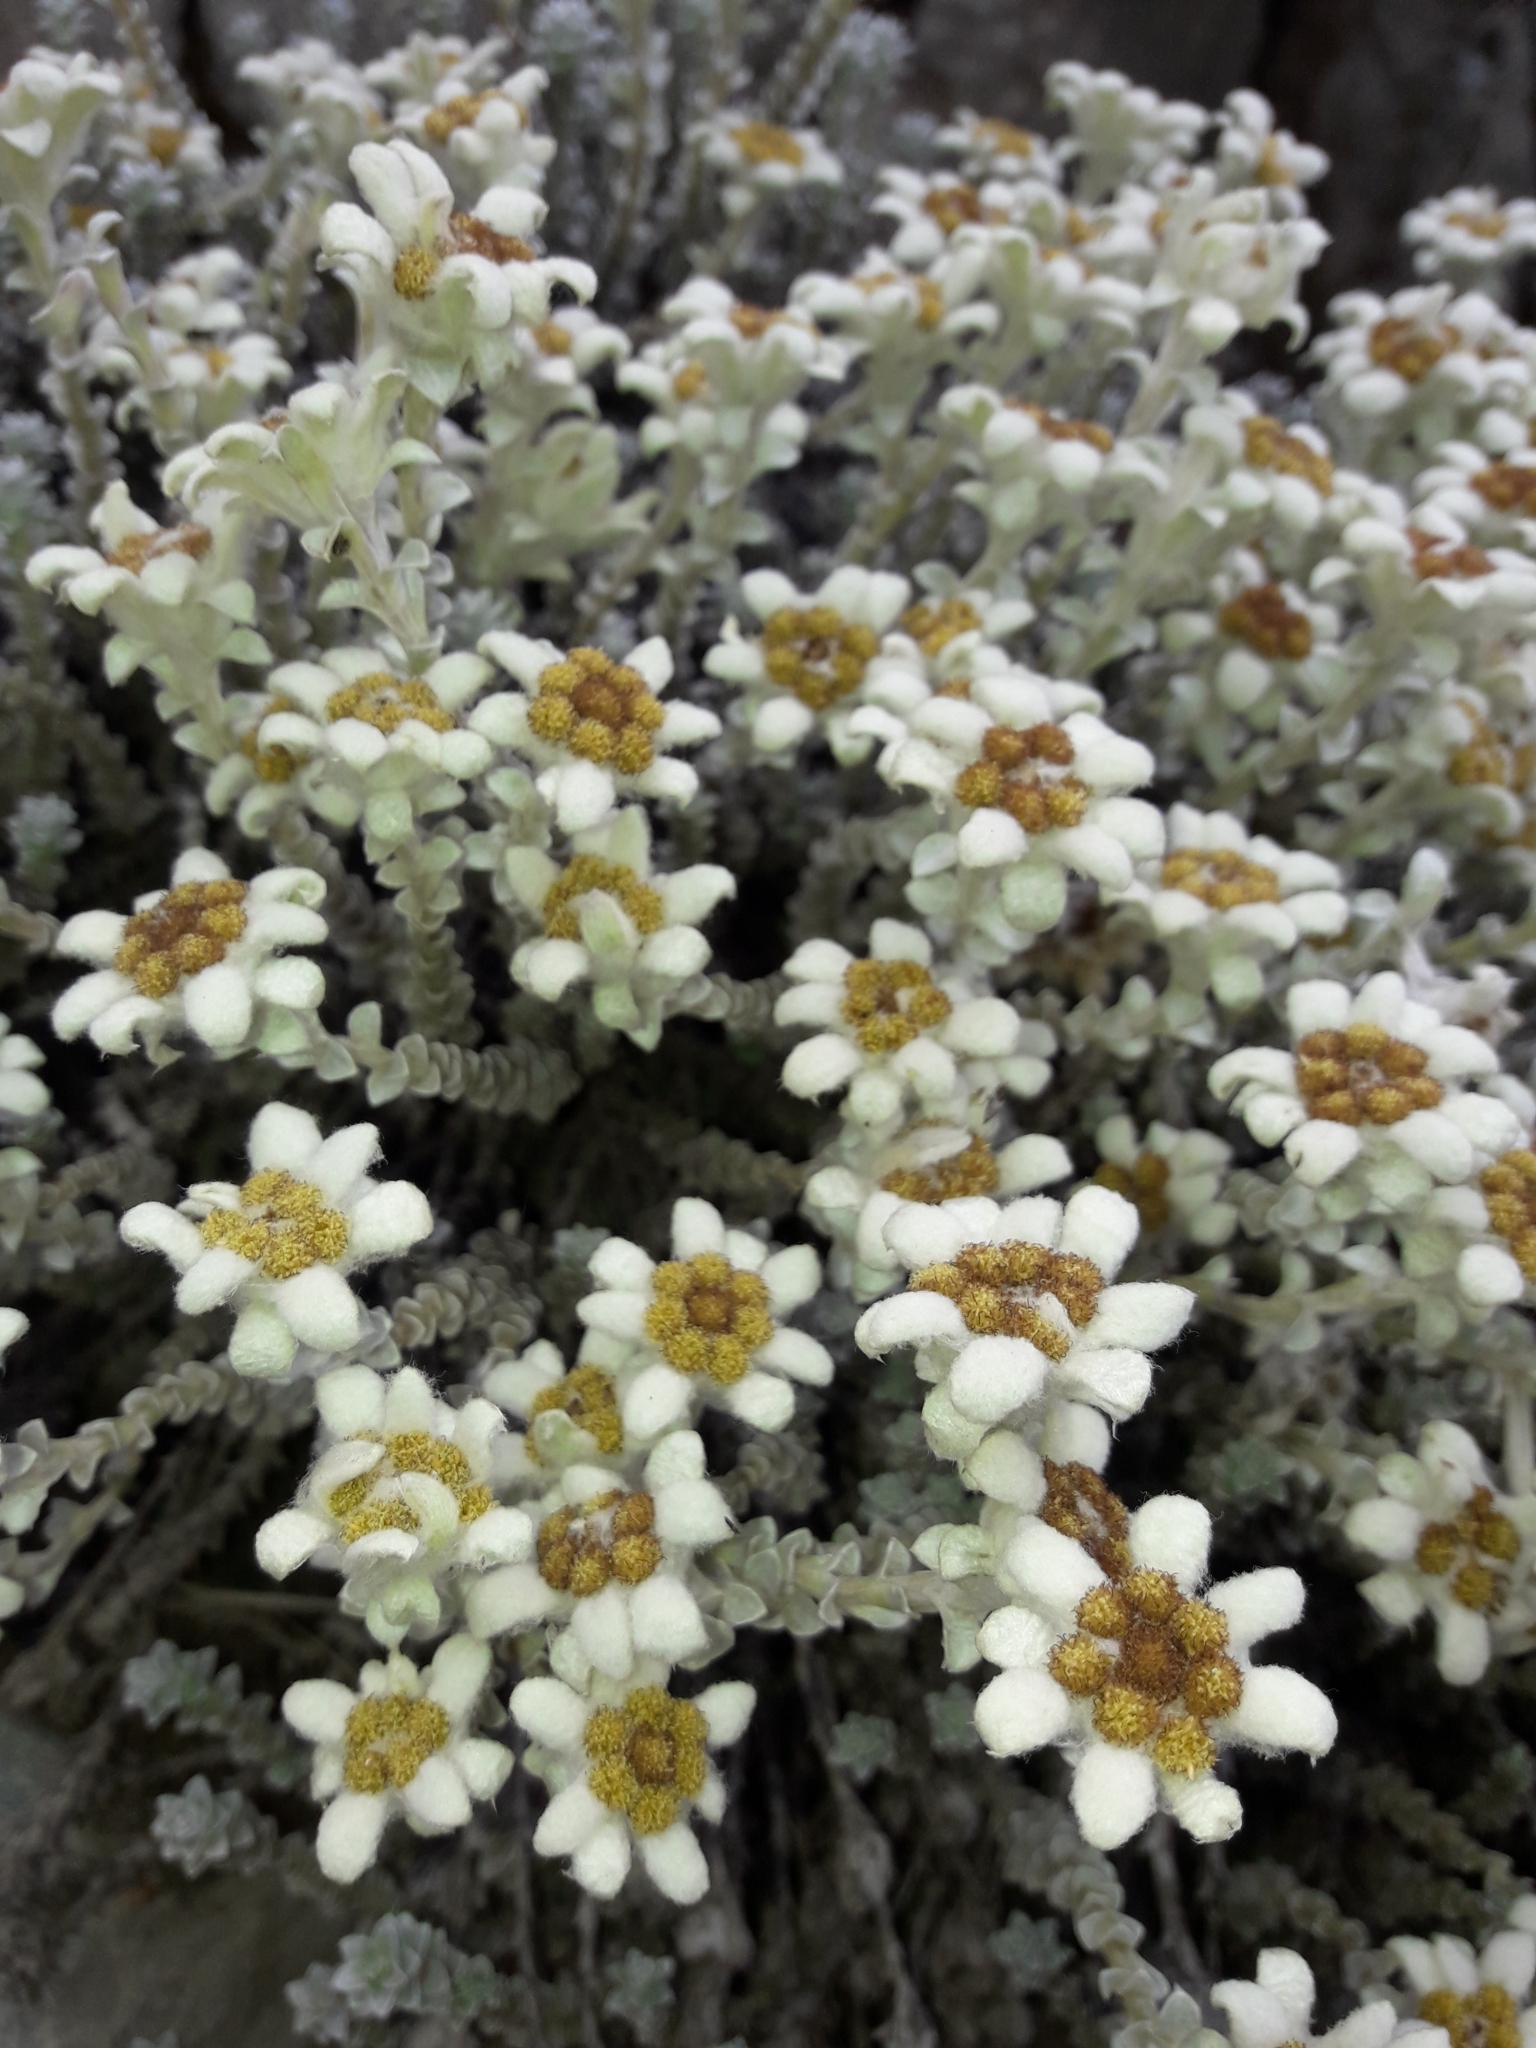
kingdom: Plantae
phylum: Tracheophyta
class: Magnoliopsida
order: Asterales
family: Asteraceae
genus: Leucogenes
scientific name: Leucogenes grandiceps
